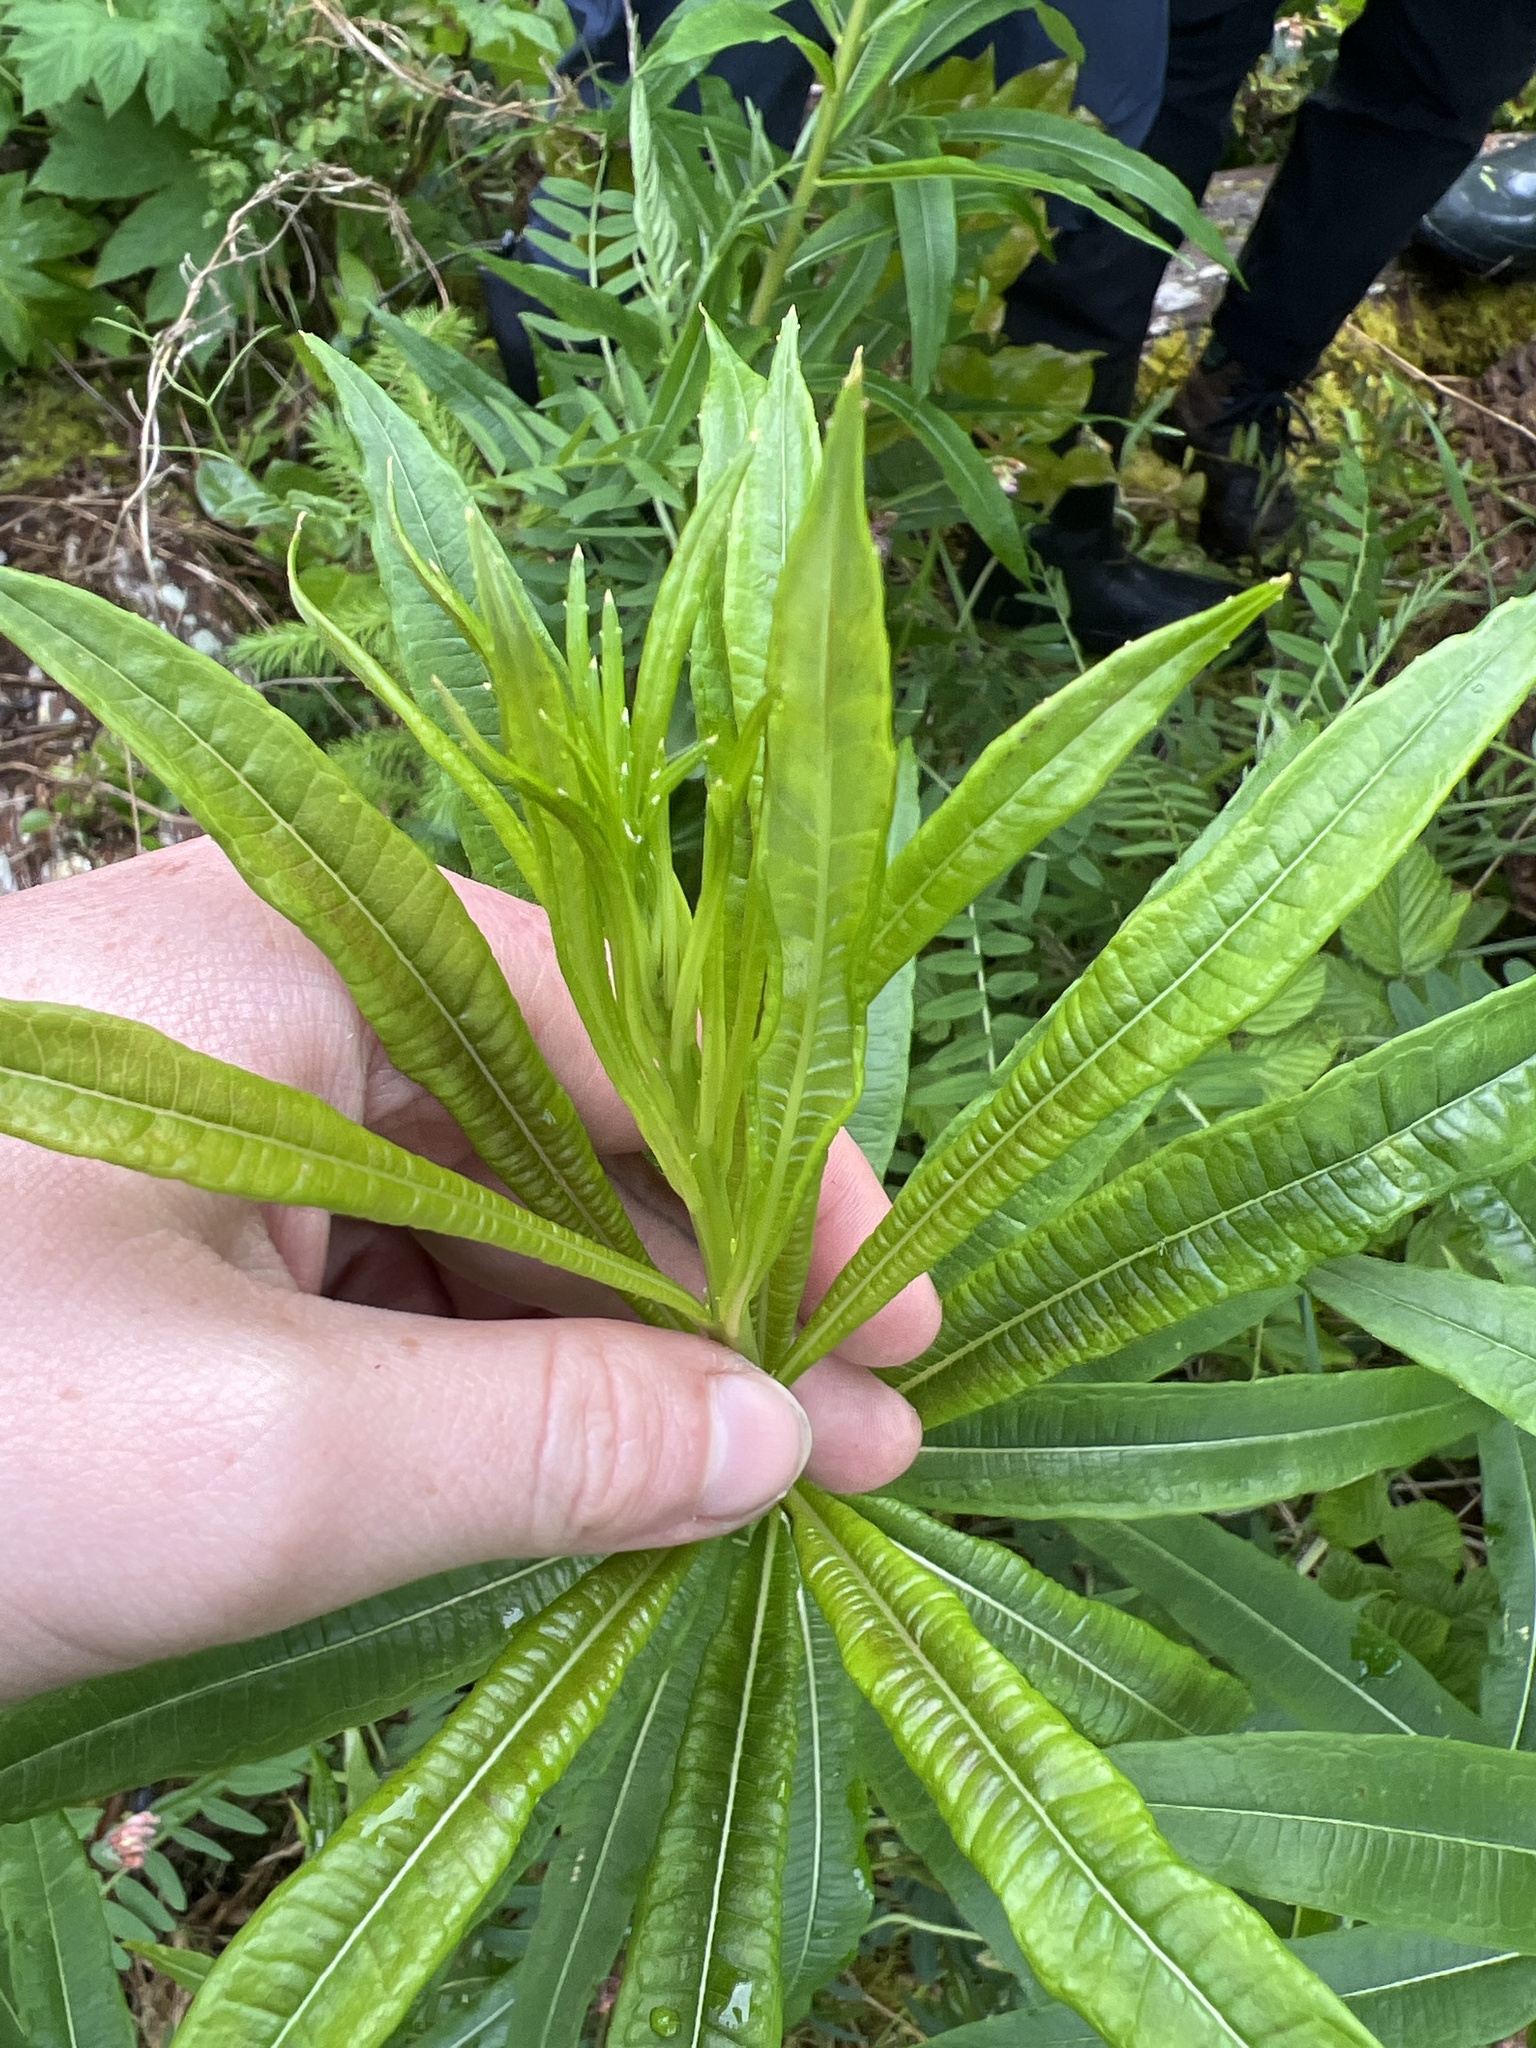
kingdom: Plantae
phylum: Tracheophyta
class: Magnoliopsida
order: Myrtales
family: Onagraceae
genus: Chamaenerion
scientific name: Chamaenerion angustifolium
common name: Fireweed
